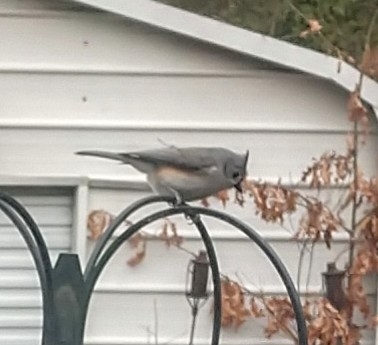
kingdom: Animalia
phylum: Chordata
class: Aves
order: Passeriformes
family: Paridae
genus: Baeolophus
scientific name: Baeolophus bicolor
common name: Tufted titmouse
